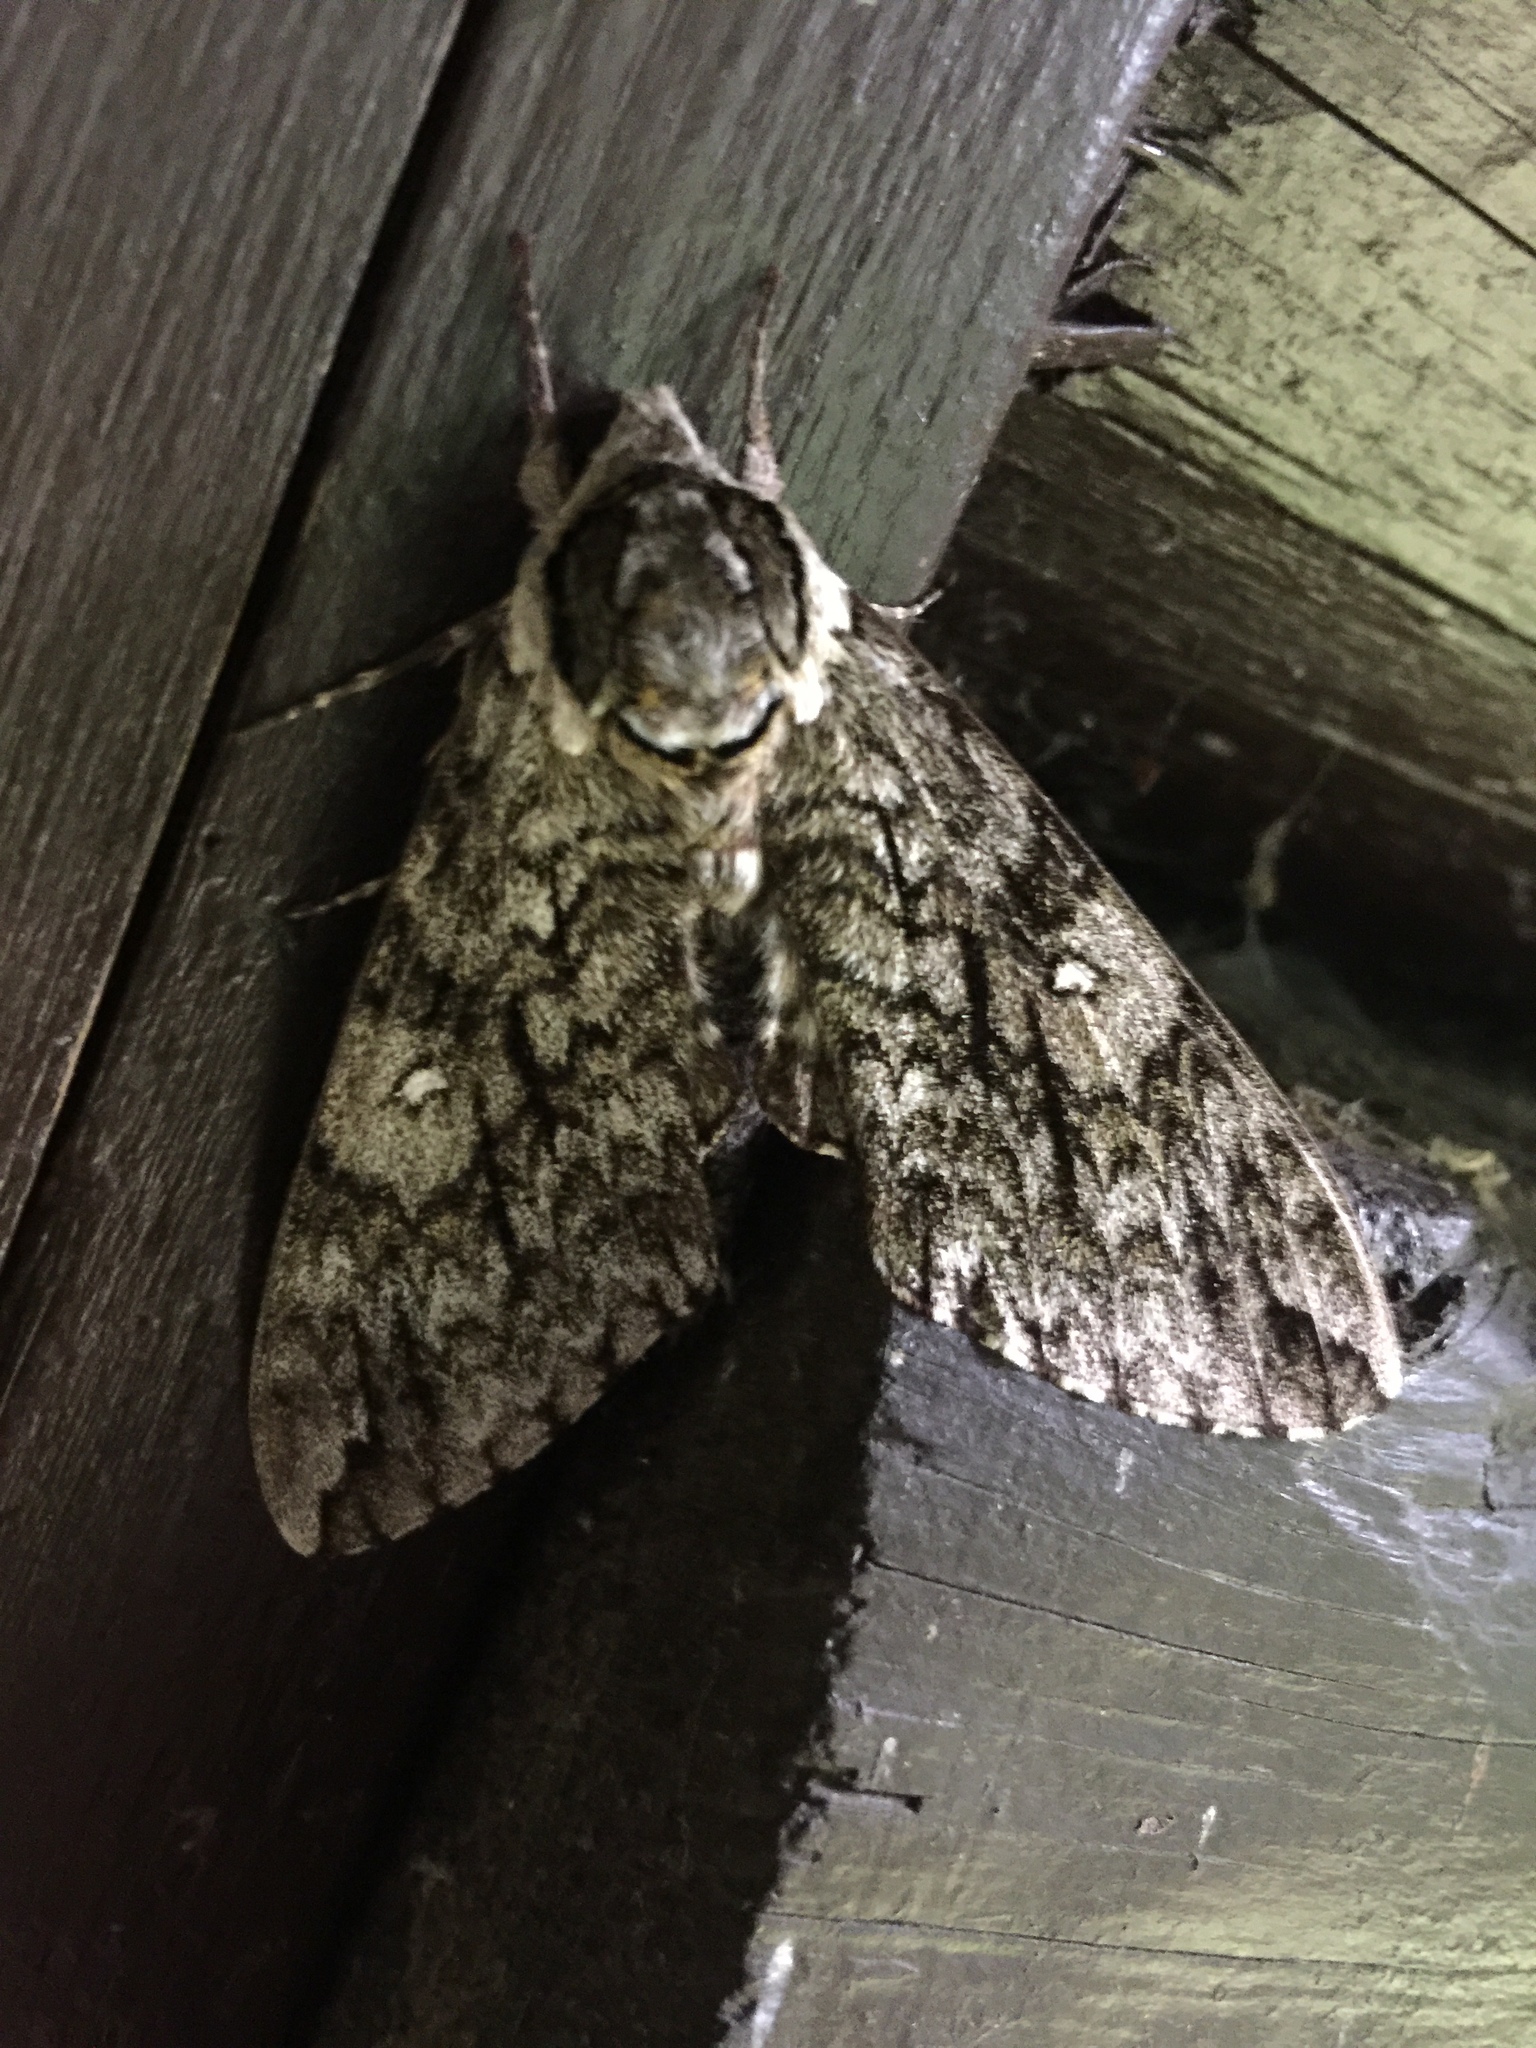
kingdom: Animalia
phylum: Arthropoda
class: Insecta
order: Lepidoptera
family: Sphingidae
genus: Ceratomia
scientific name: Ceratomia undulosa
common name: Waved sphinx
